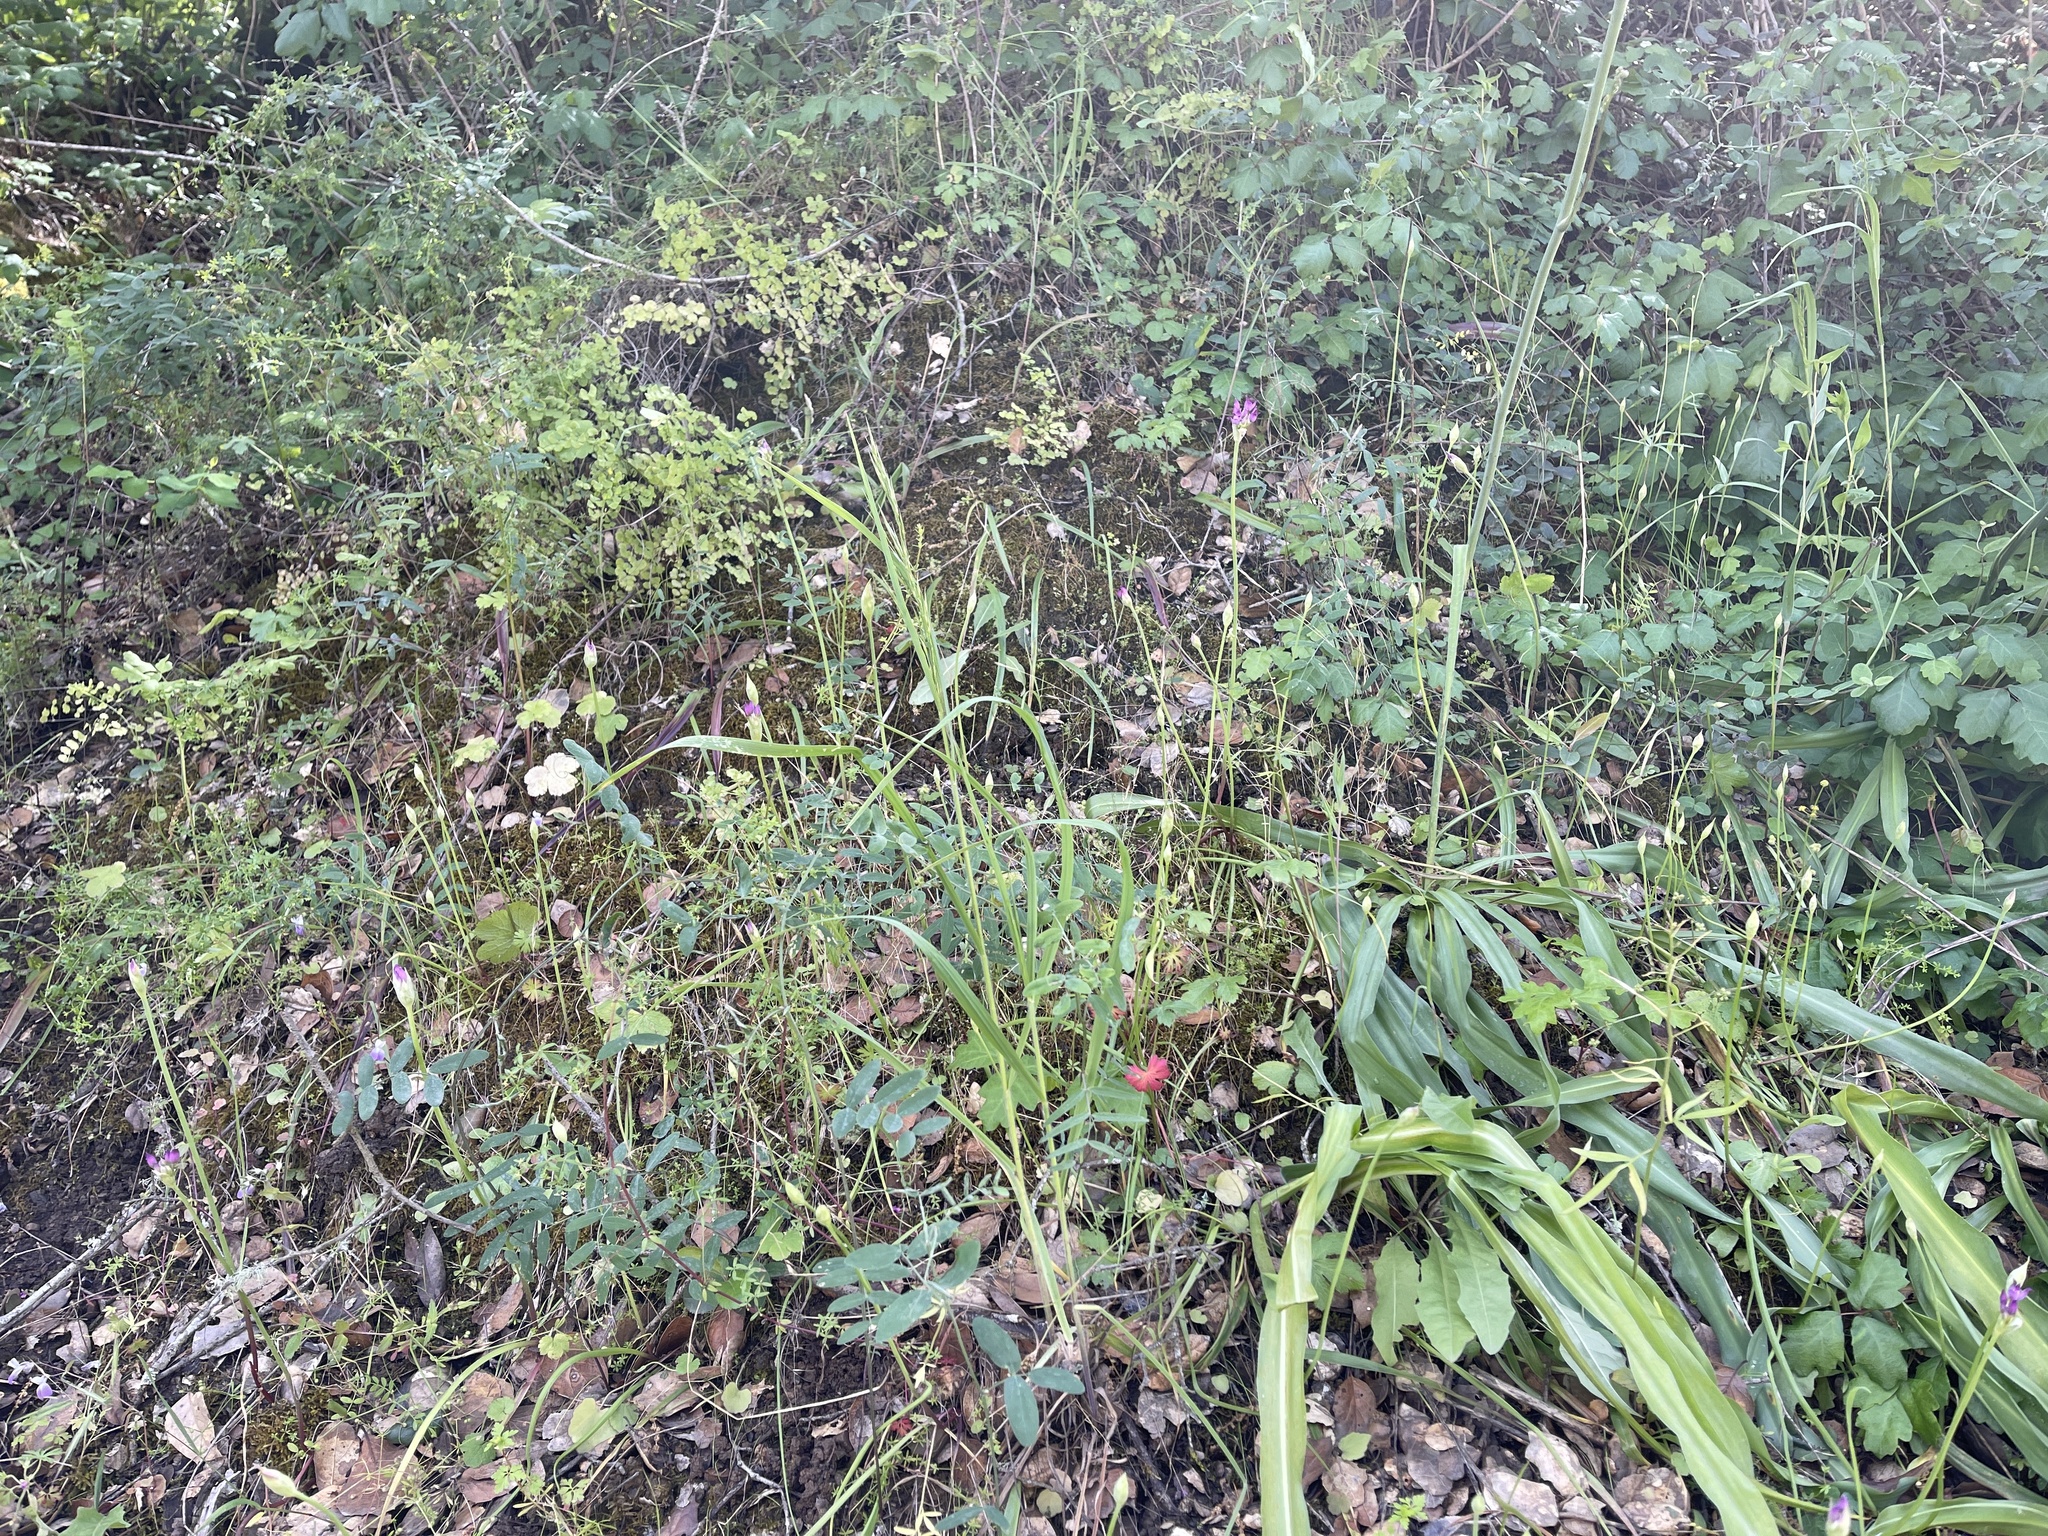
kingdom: Plantae
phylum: Tracheophyta
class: Liliopsida
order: Asparagales
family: Amaryllidaceae
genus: Allium
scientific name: Allium peninsulare
